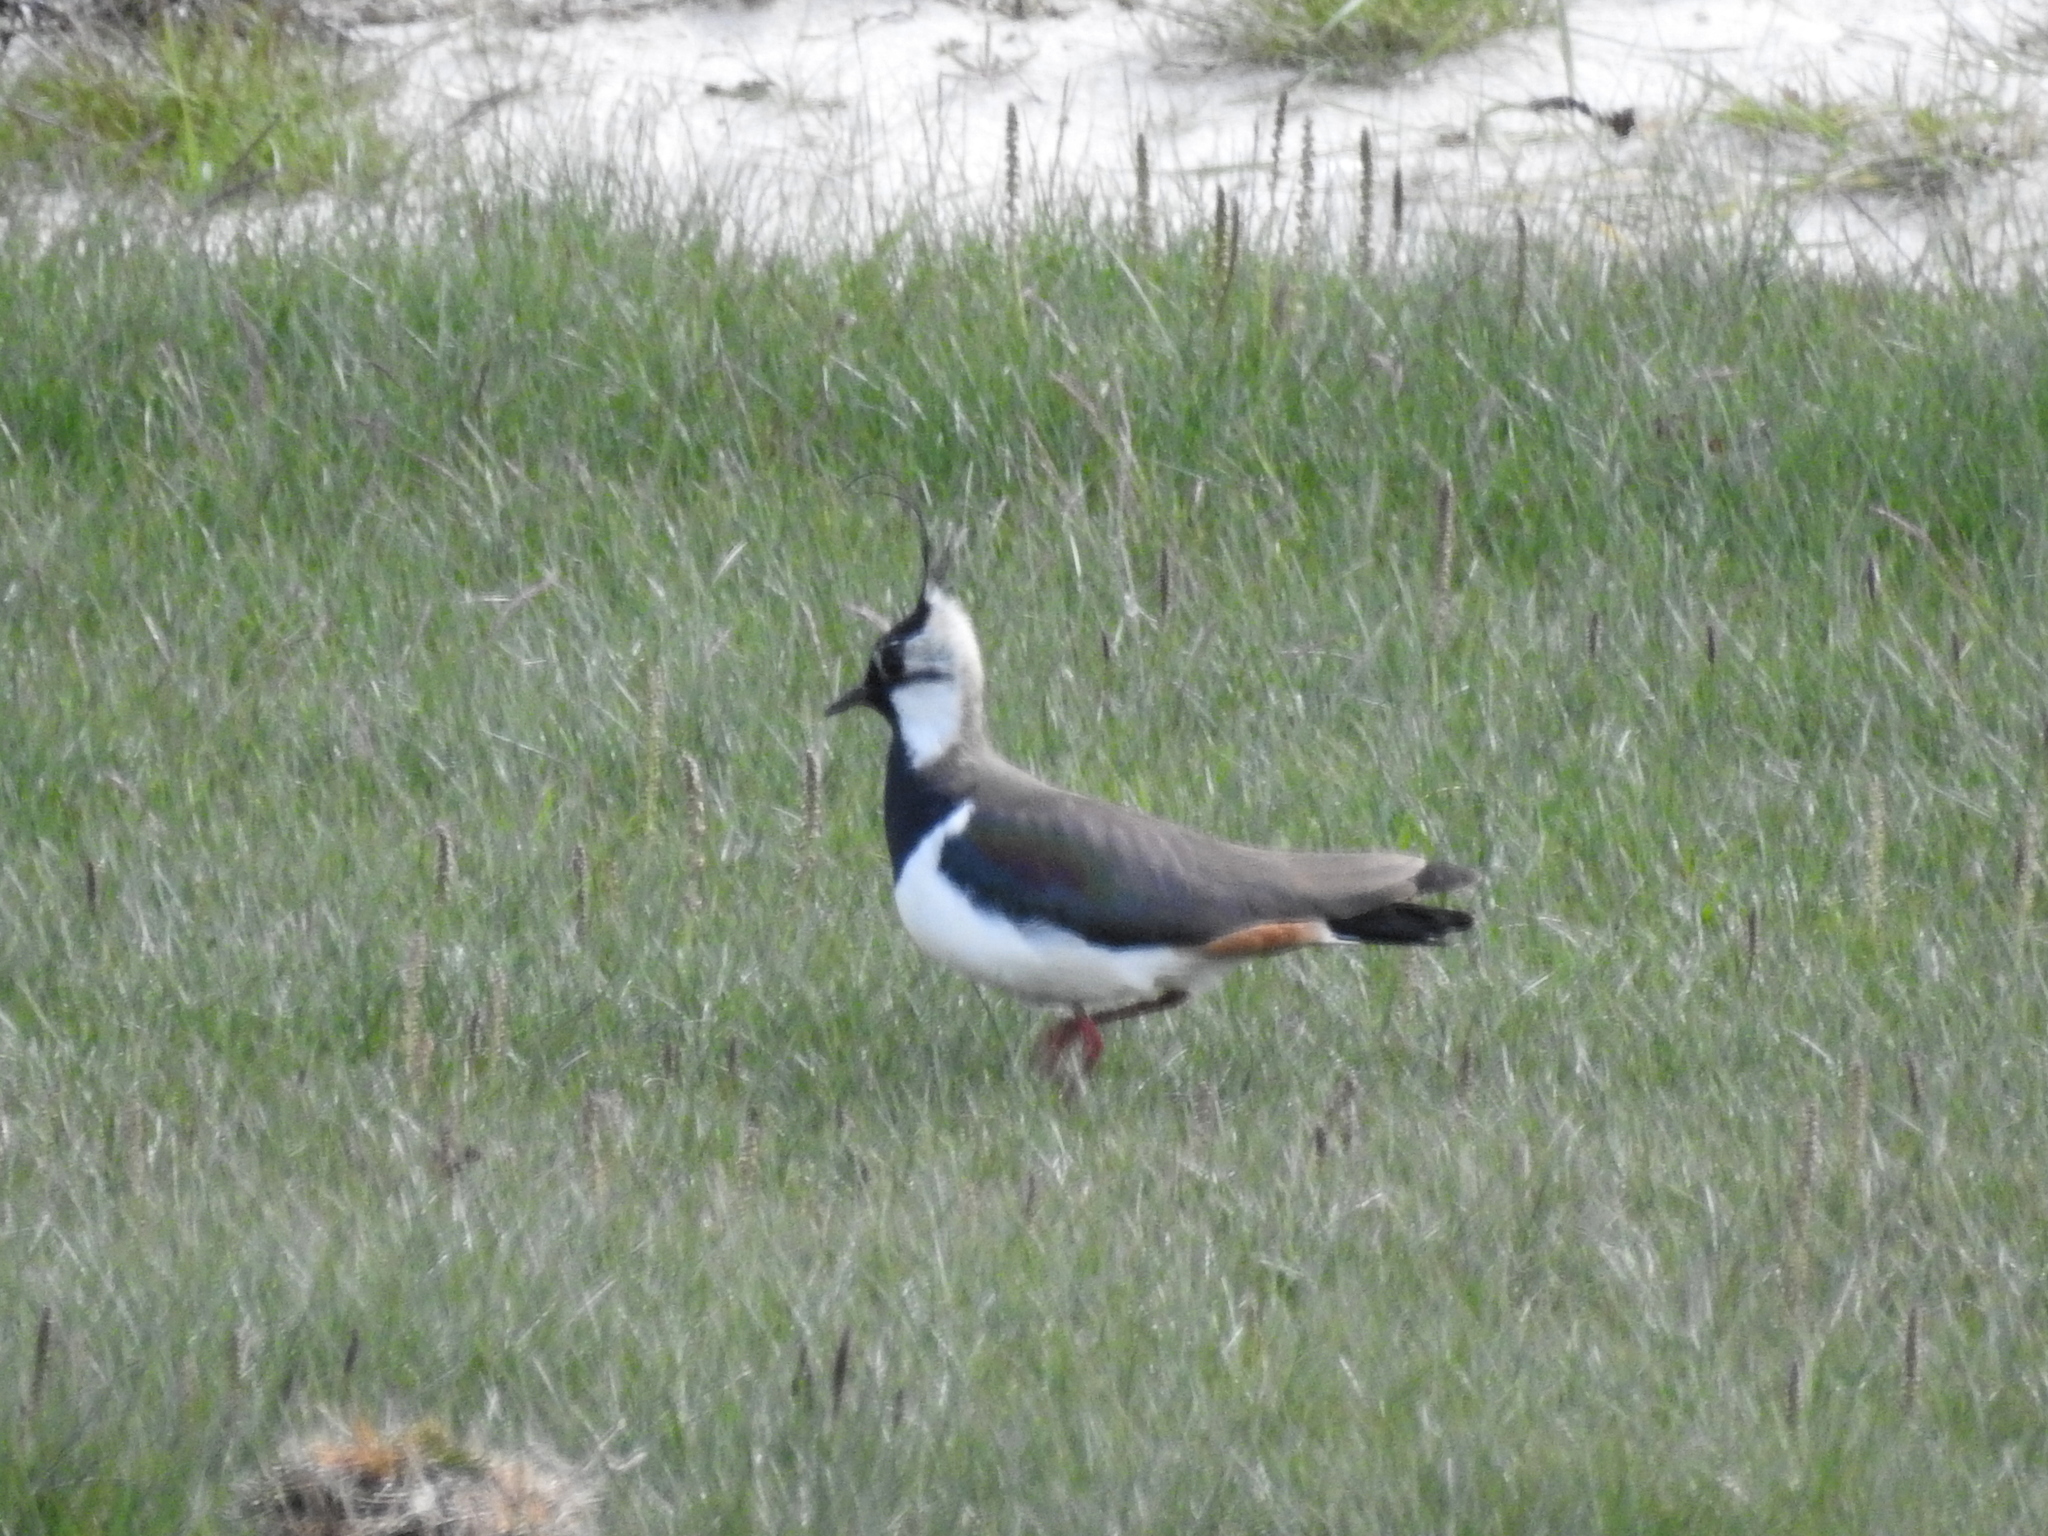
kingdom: Animalia
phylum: Chordata
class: Aves
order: Charadriiformes
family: Charadriidae
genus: Vanellus
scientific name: Vanellus vanellus
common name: Northern lapwing
